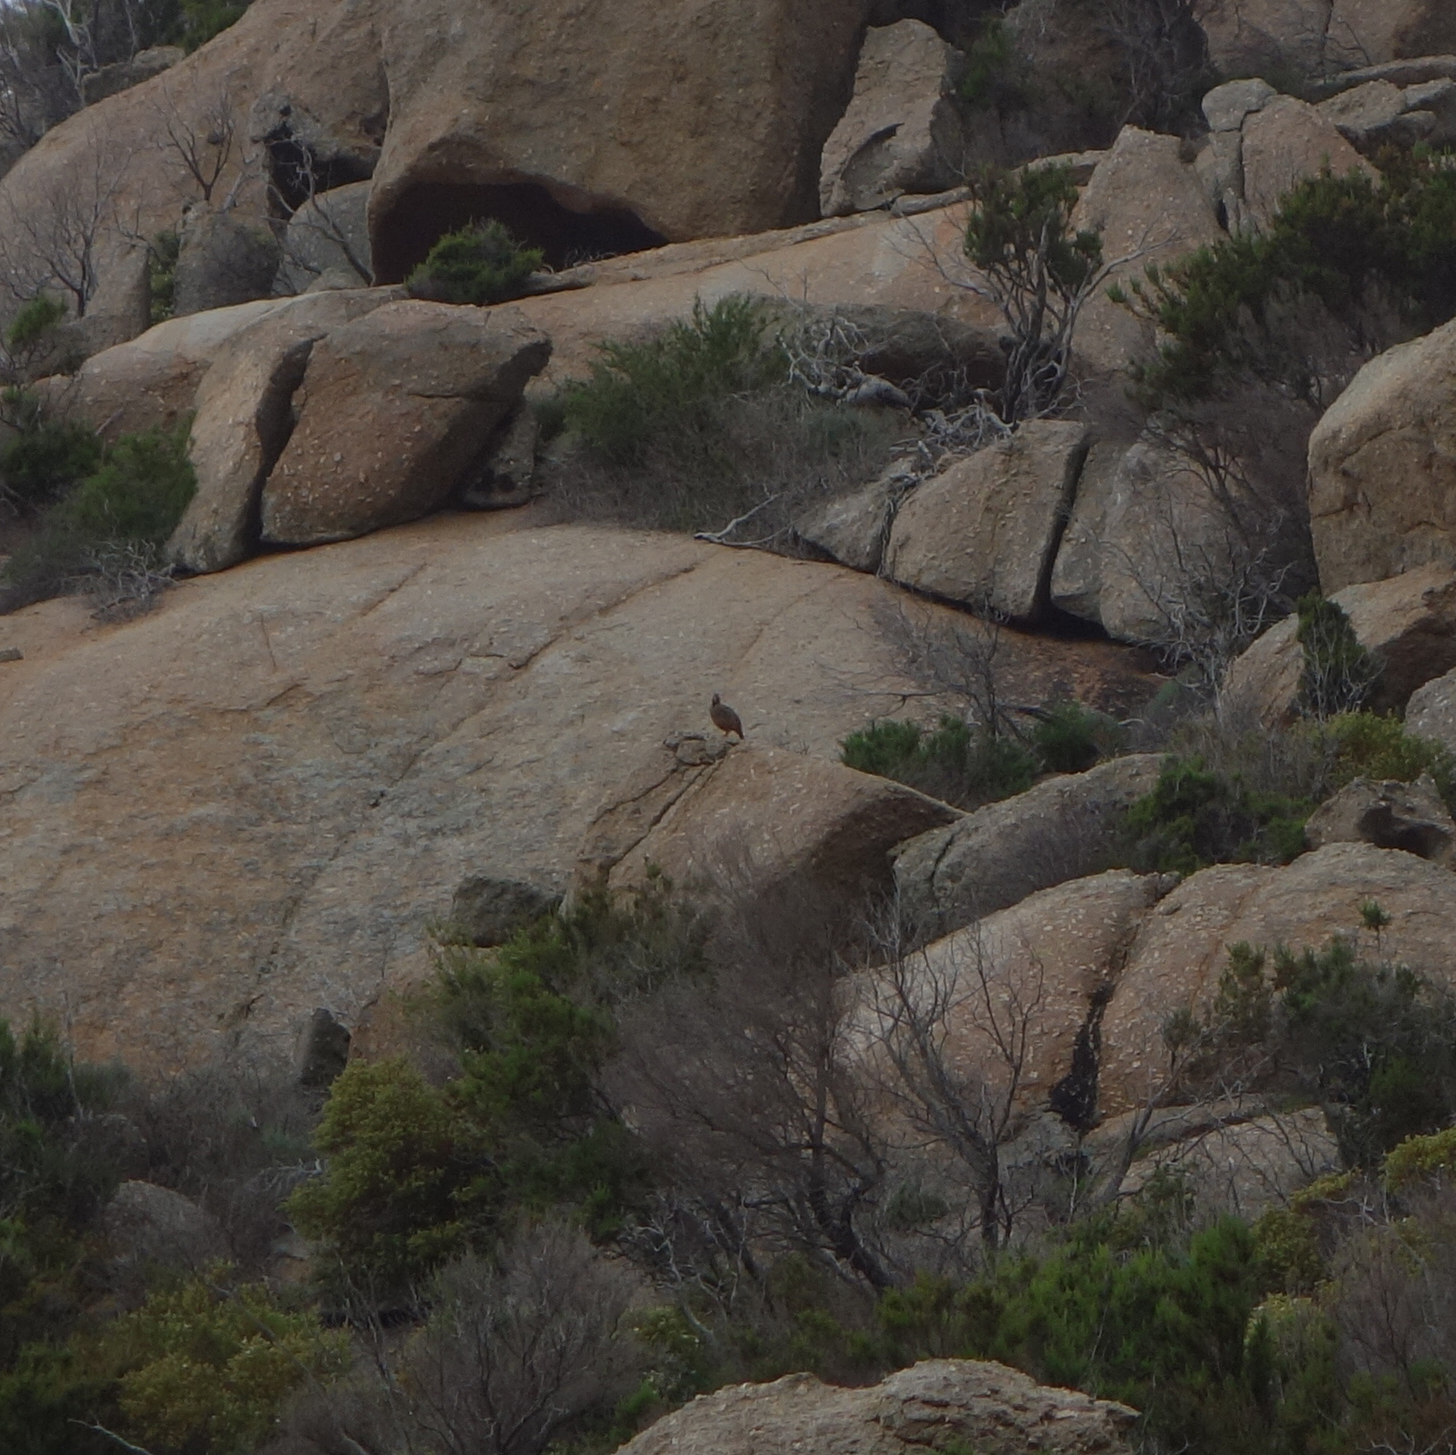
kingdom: Animalia
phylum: Chordata
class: Aves
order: Galliformes
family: Phasianidae
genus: Alectoris
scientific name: Alectoris chukar
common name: Chukar
